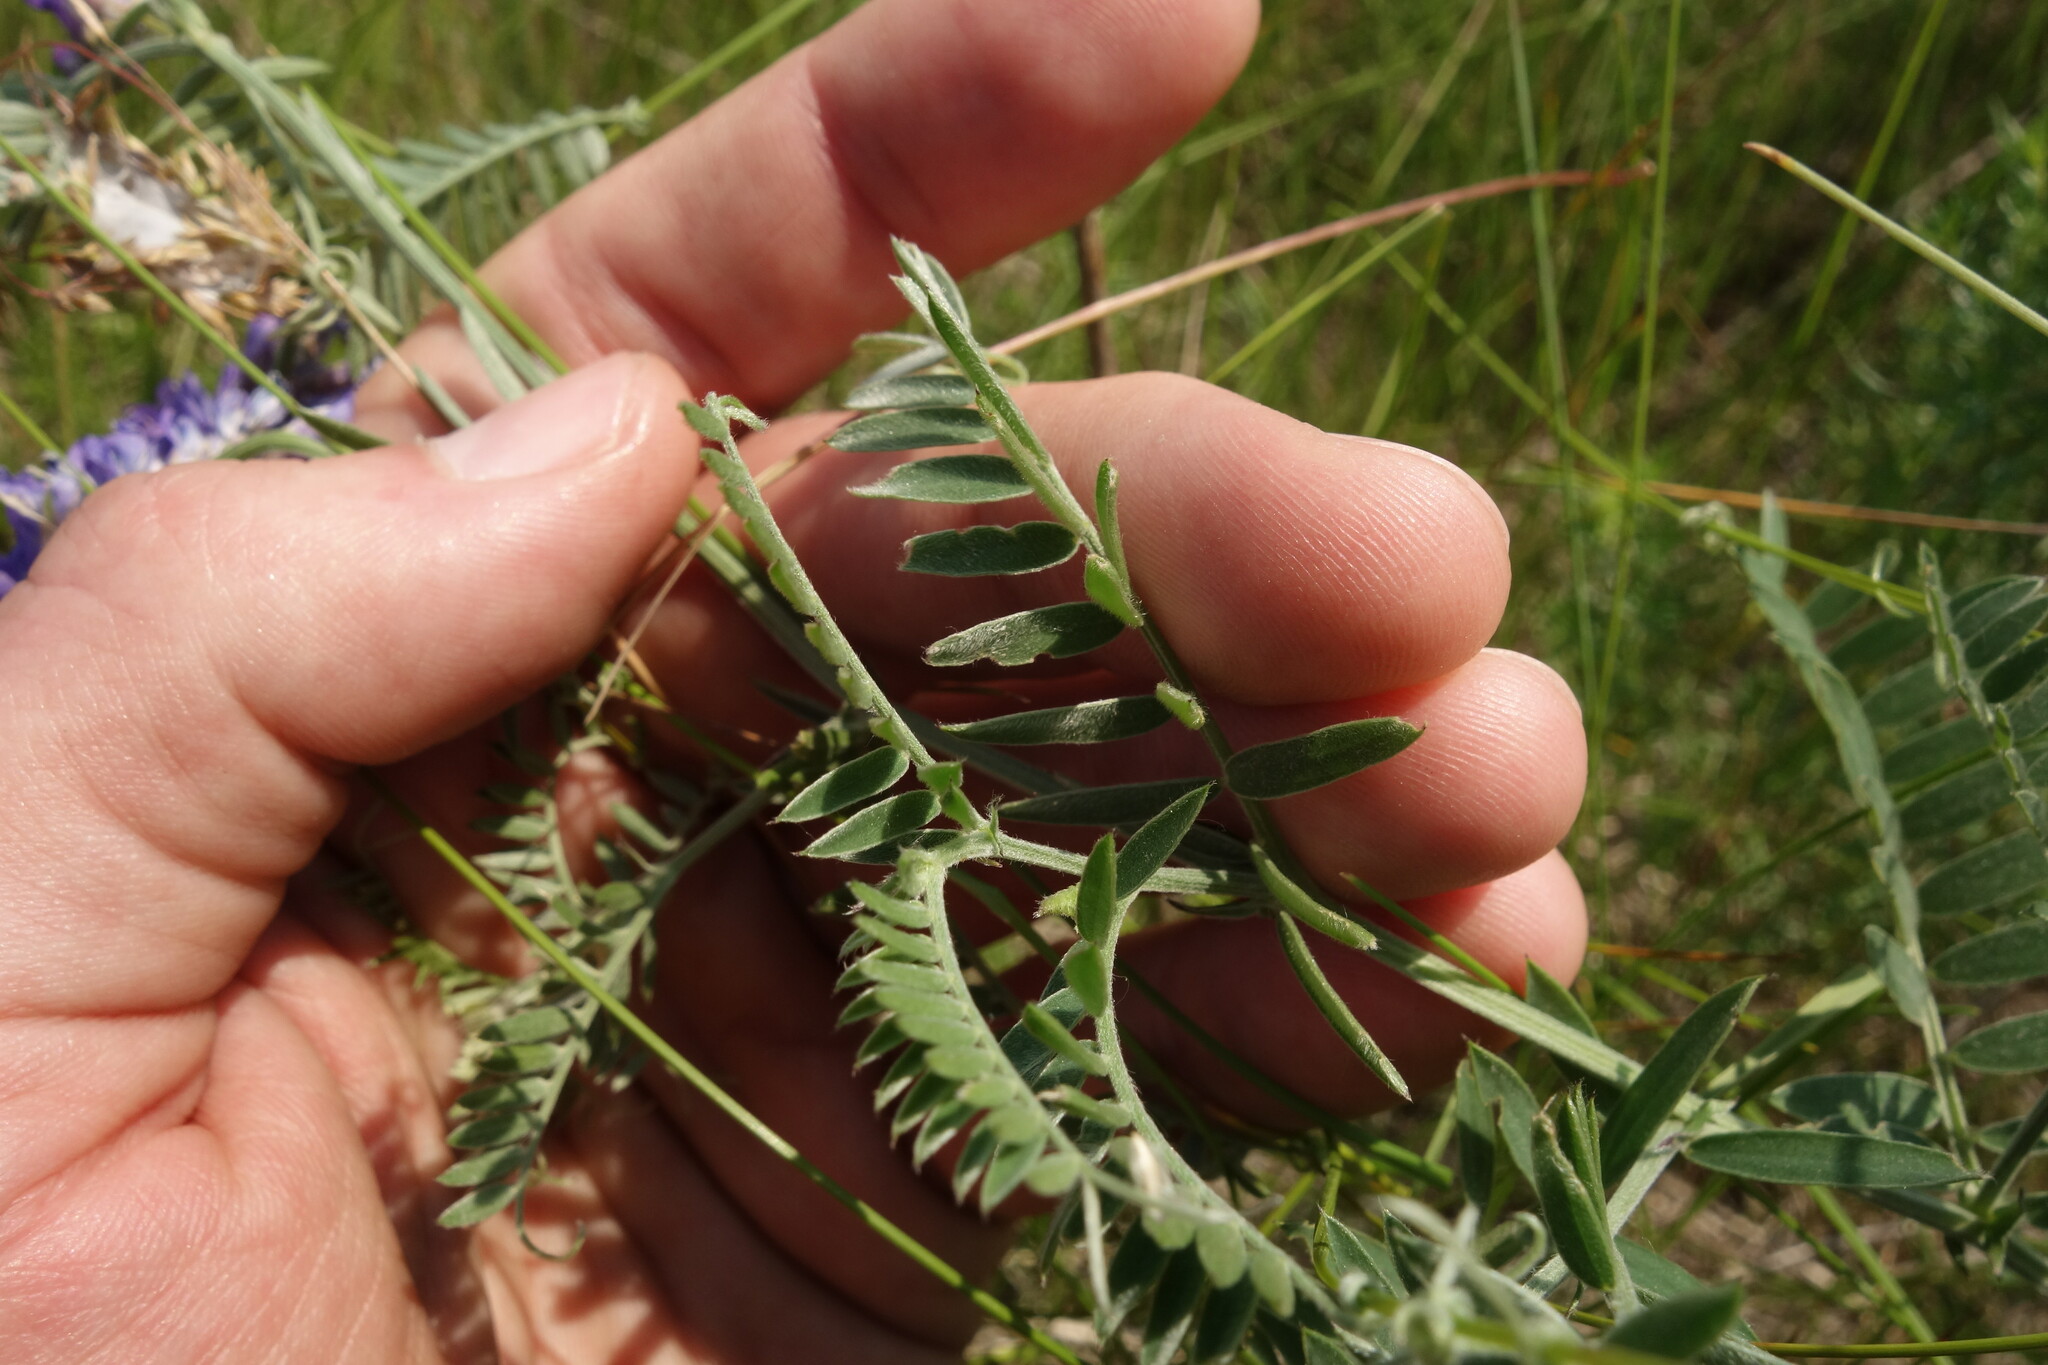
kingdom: Plantae
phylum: Tracheophyta
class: Magnoliopsida
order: Fabales
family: Fabaceae
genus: Vicia
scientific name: Vicia cracca
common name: Bird vetch
